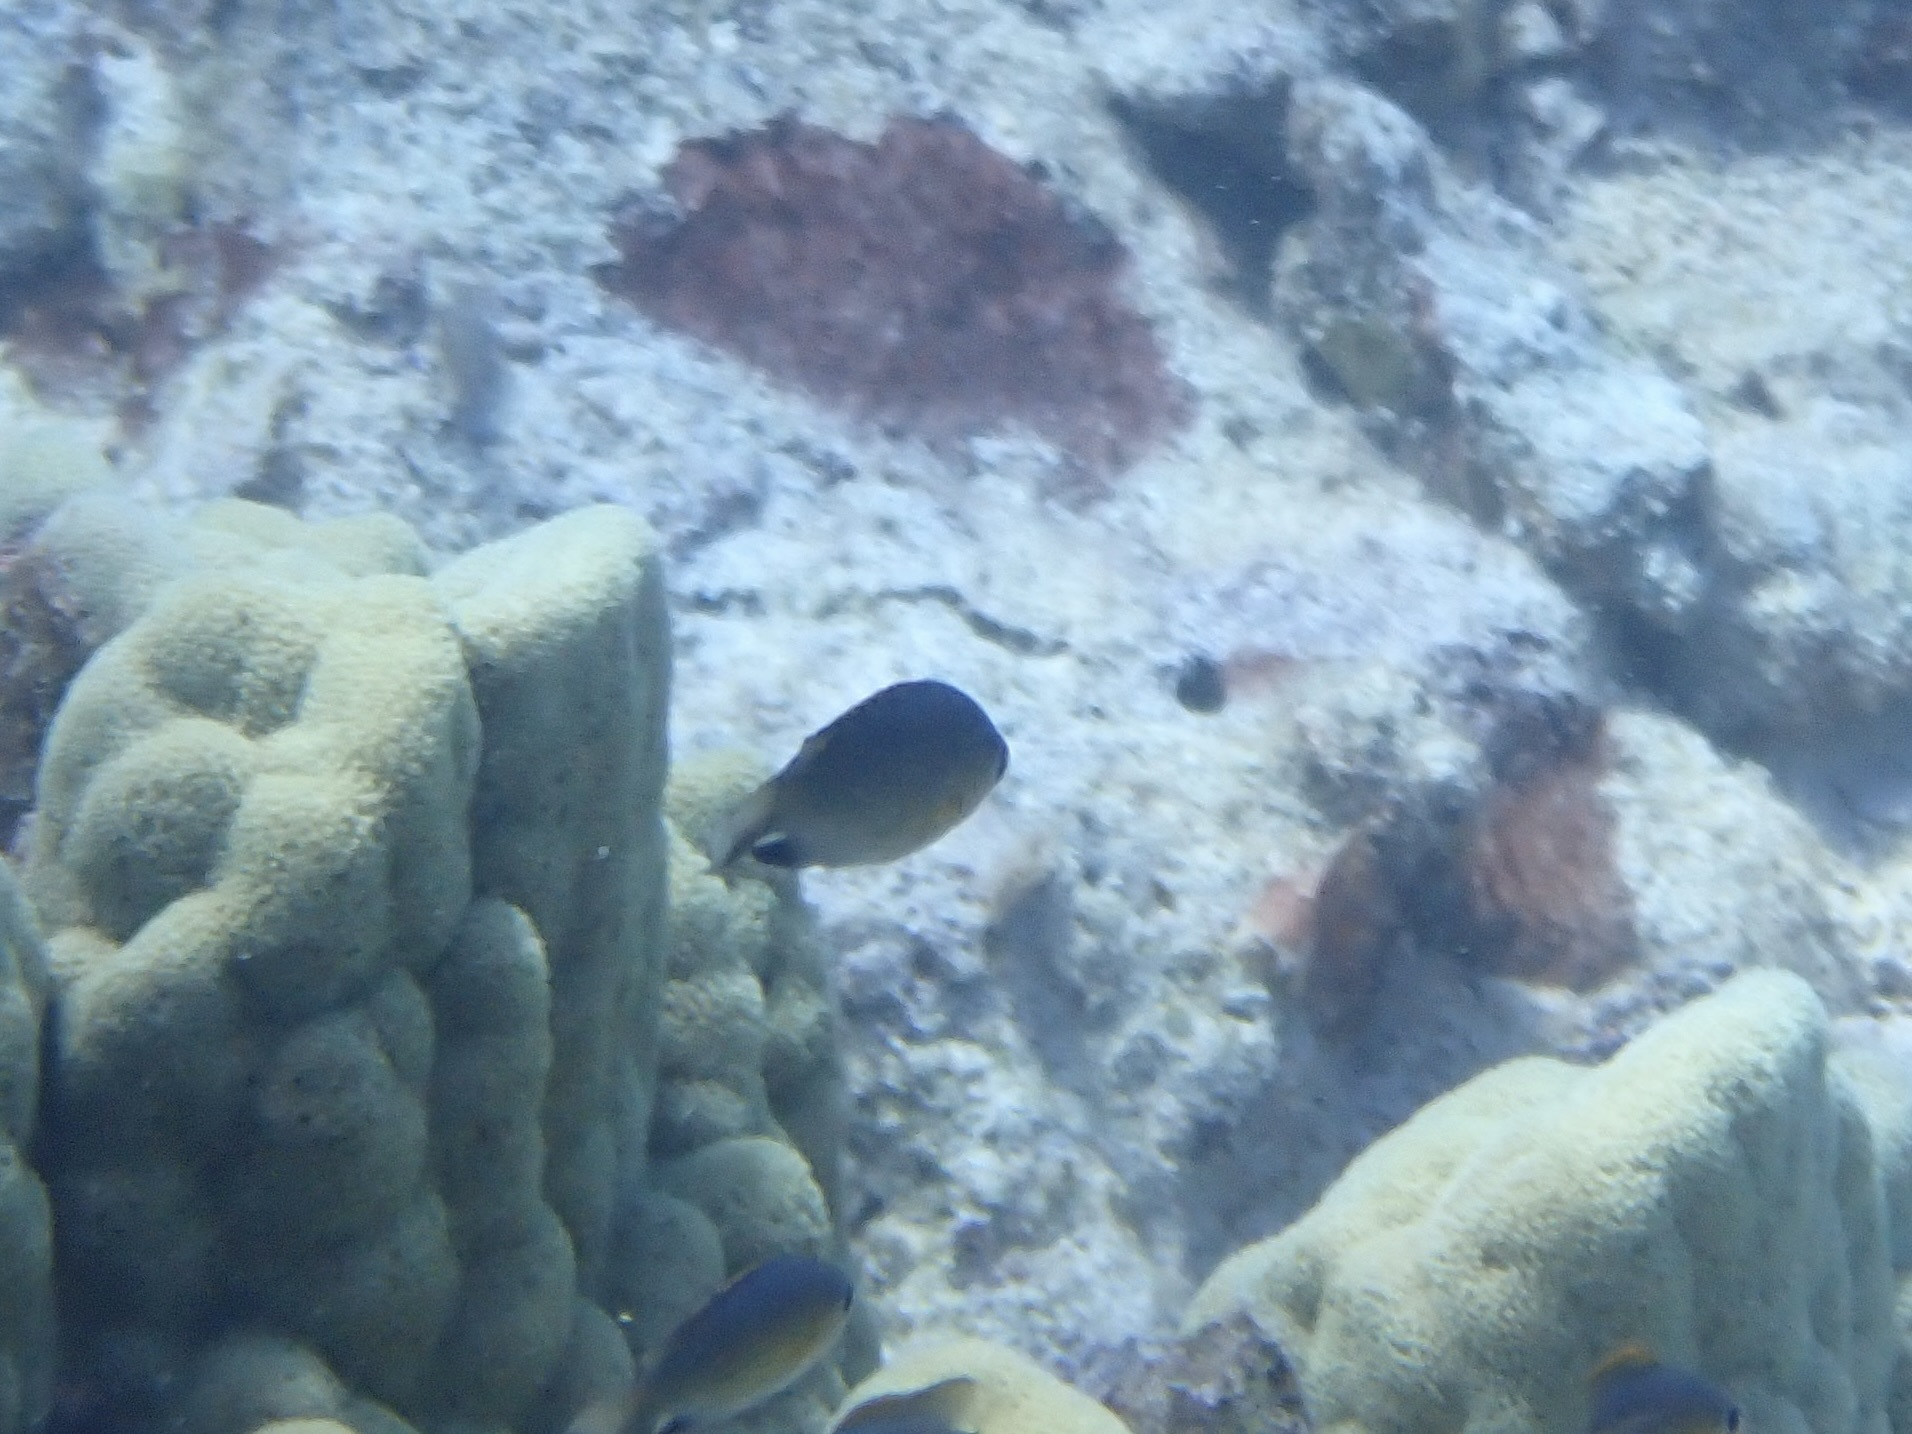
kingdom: Animalia
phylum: Chordata
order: Perciformes
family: Pomacentridae
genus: Chromis
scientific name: Chromis vanderbilti
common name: Vanderbilt's chromis
